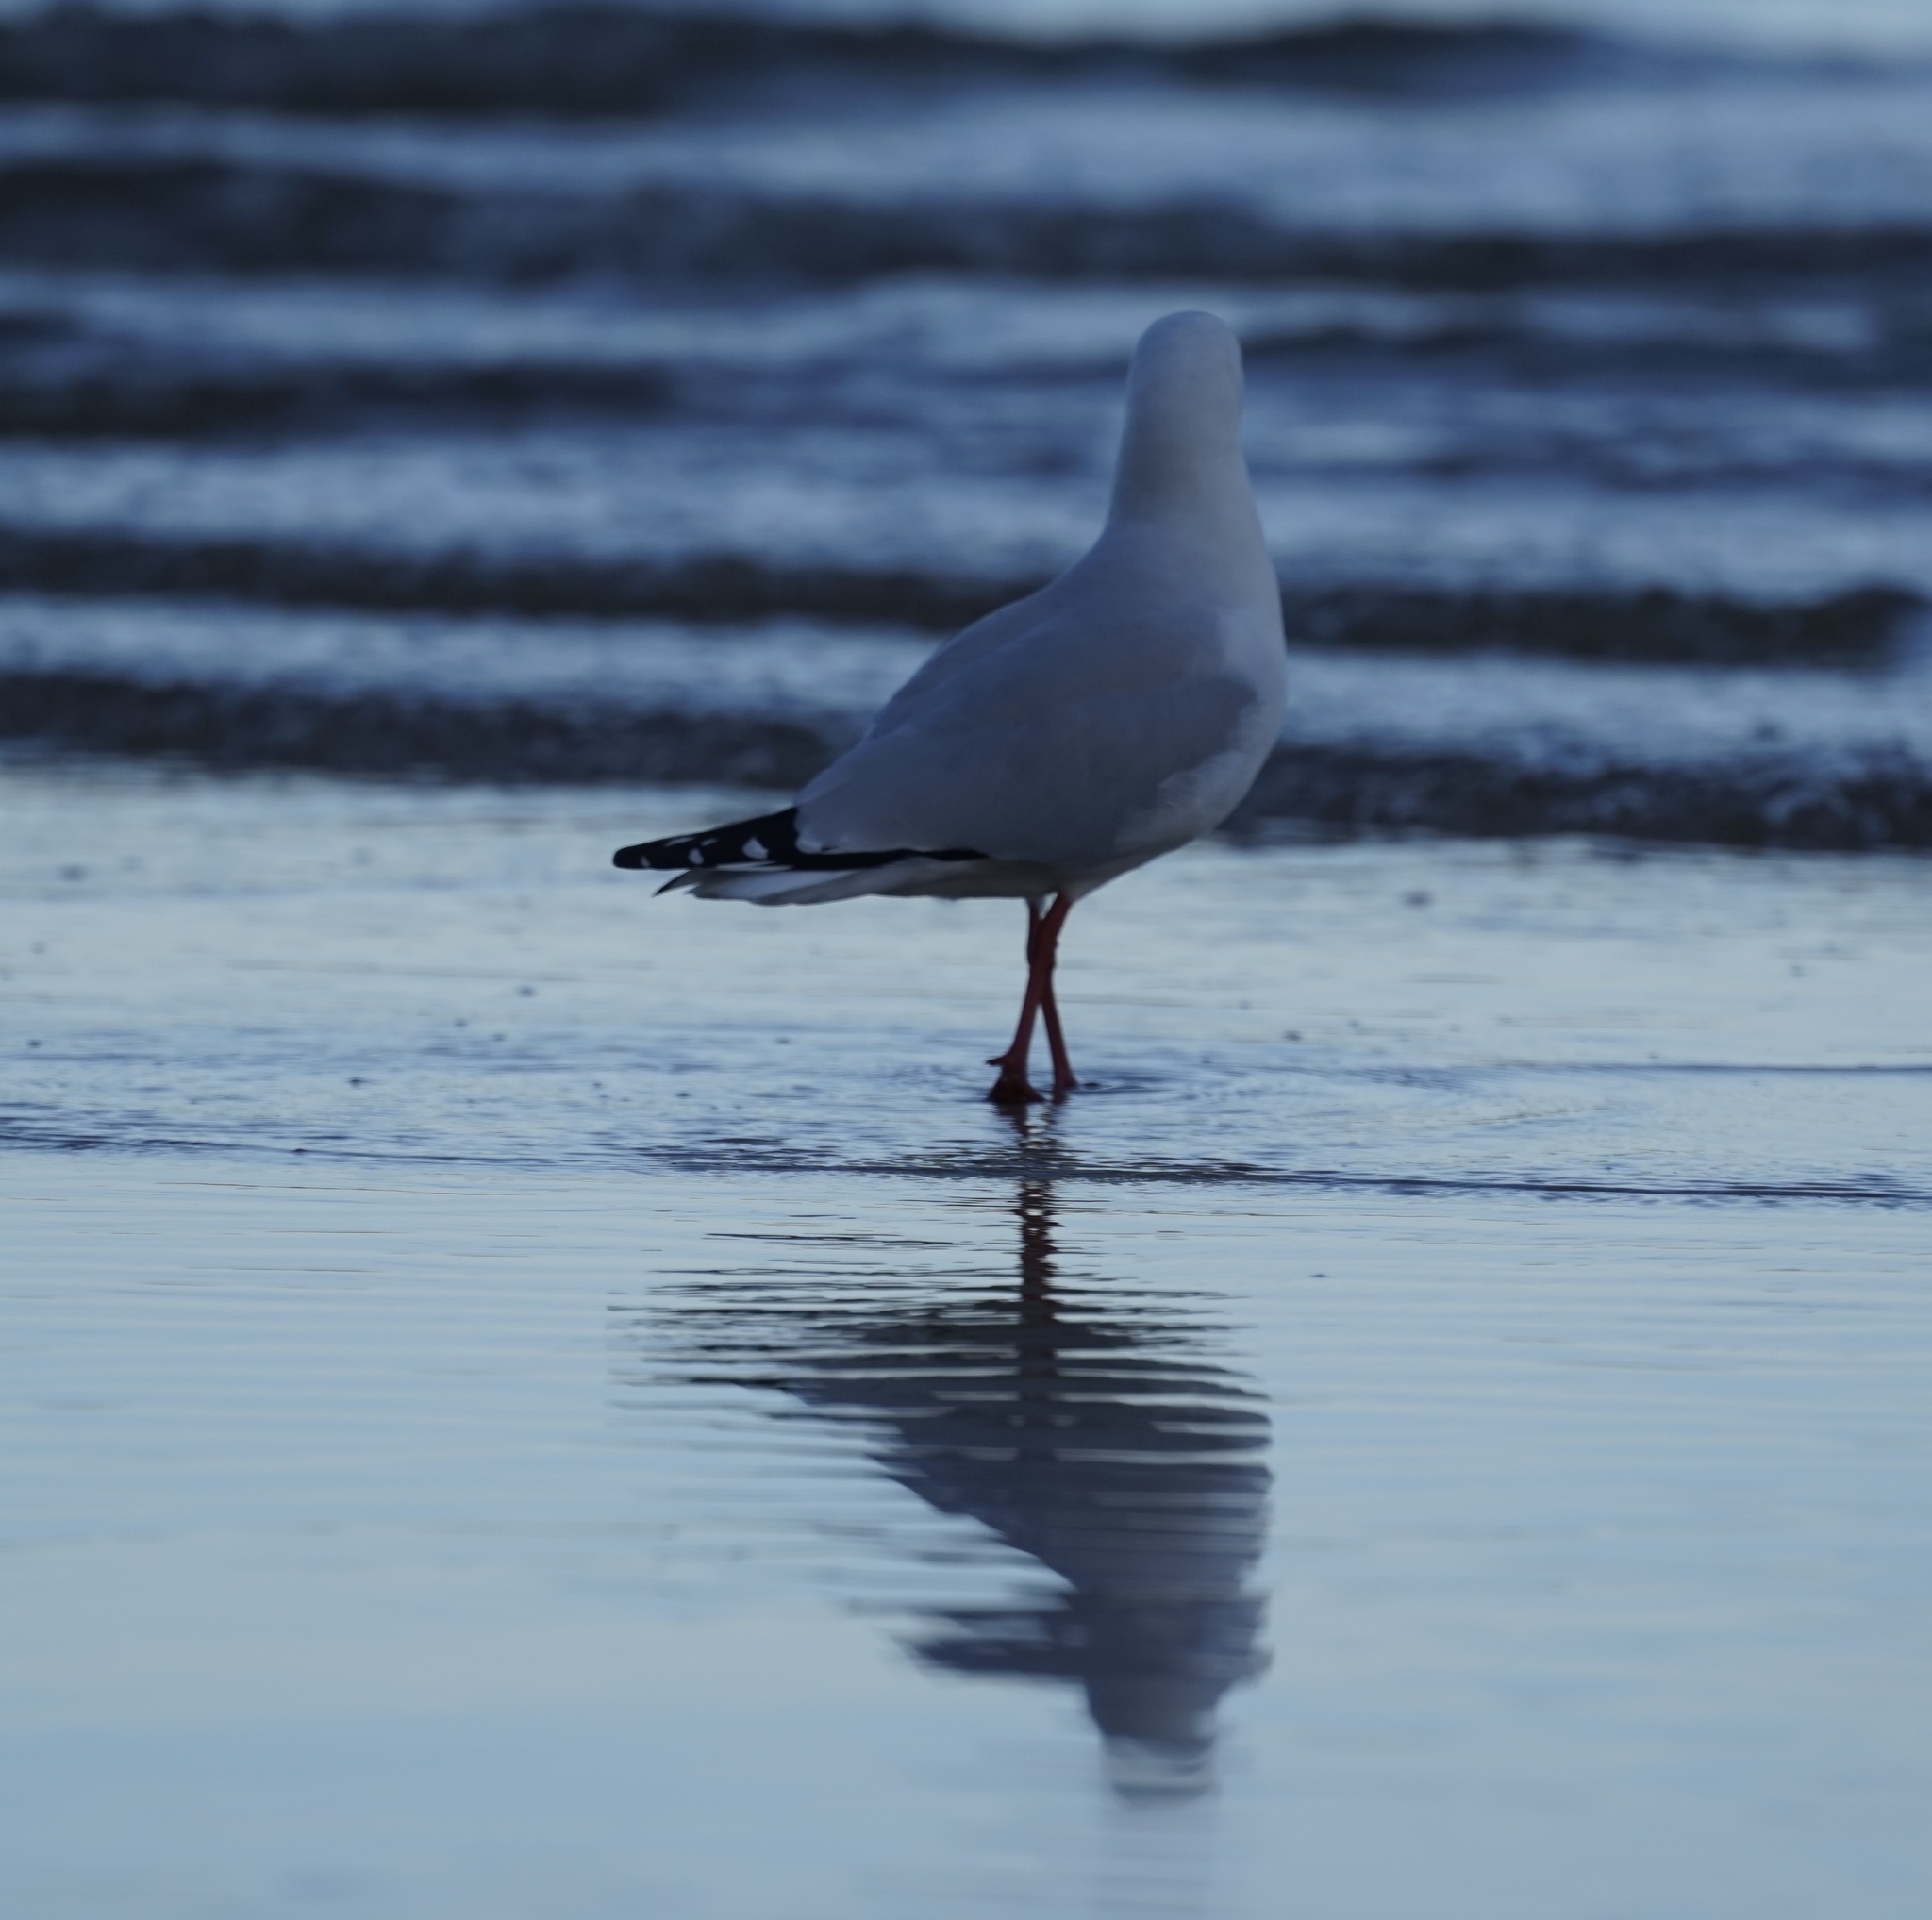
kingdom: Animalia
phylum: Chordata
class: Aves
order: Charadriiformes
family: Laridae
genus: Chroicocephalus
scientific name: Chroicocephalus novaehollandiae
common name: Silver gull
